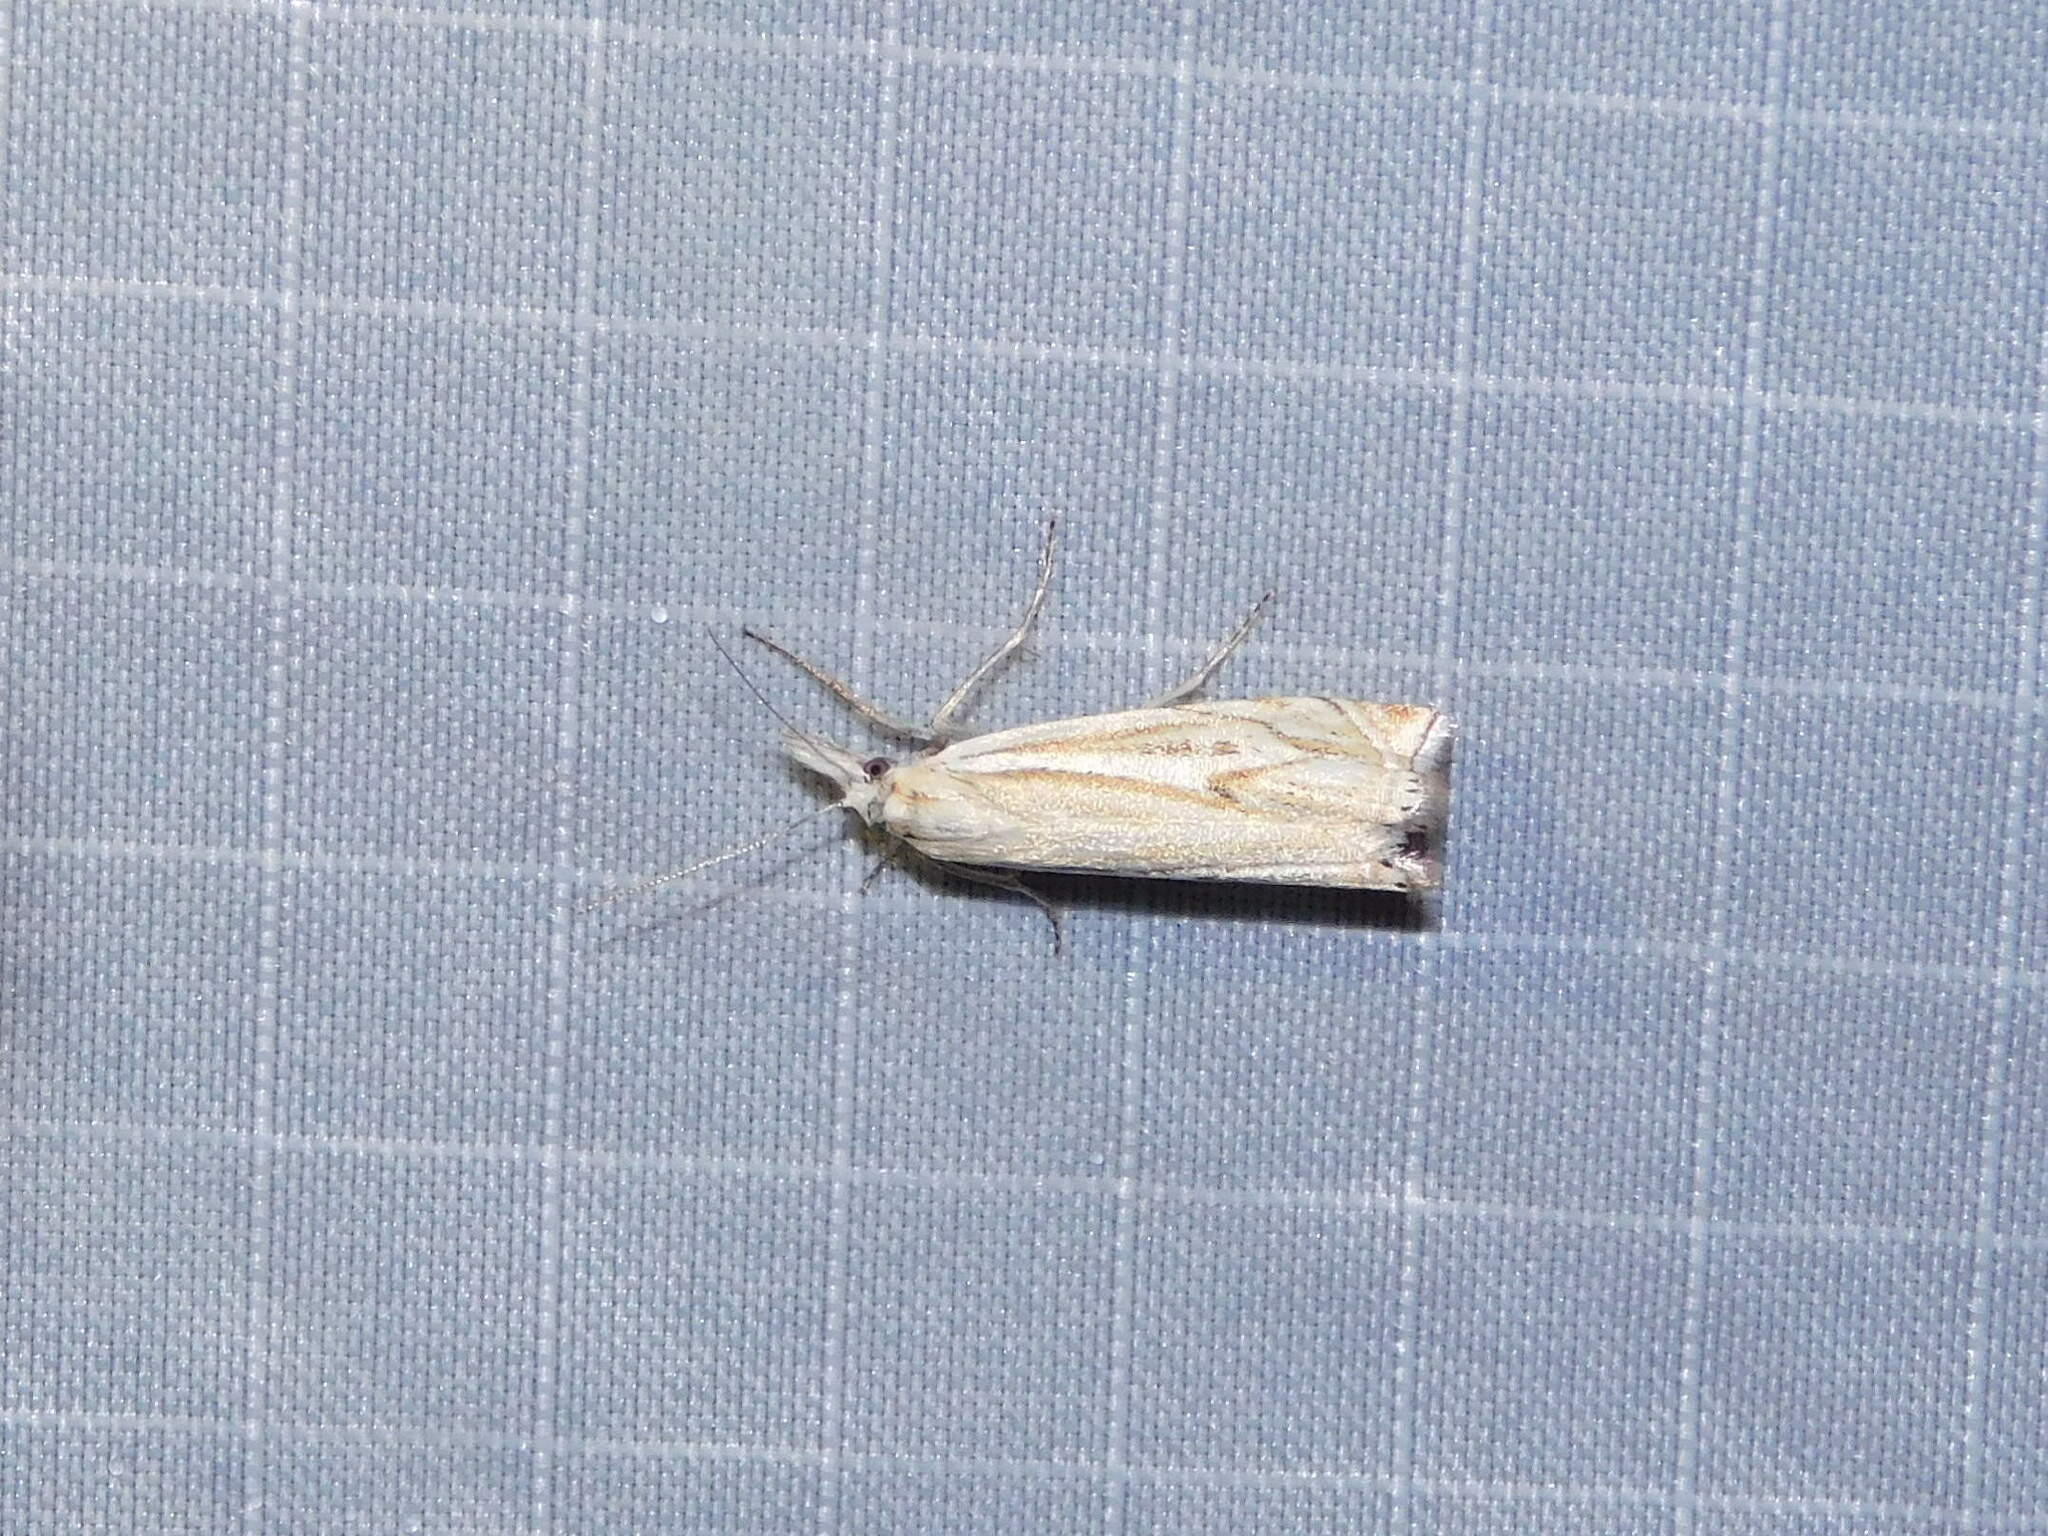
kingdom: Animalia
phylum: Arthropoda
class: Insecta
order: Lepidoptera
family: Crambidae
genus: Crambus
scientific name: Crambus nemorella
